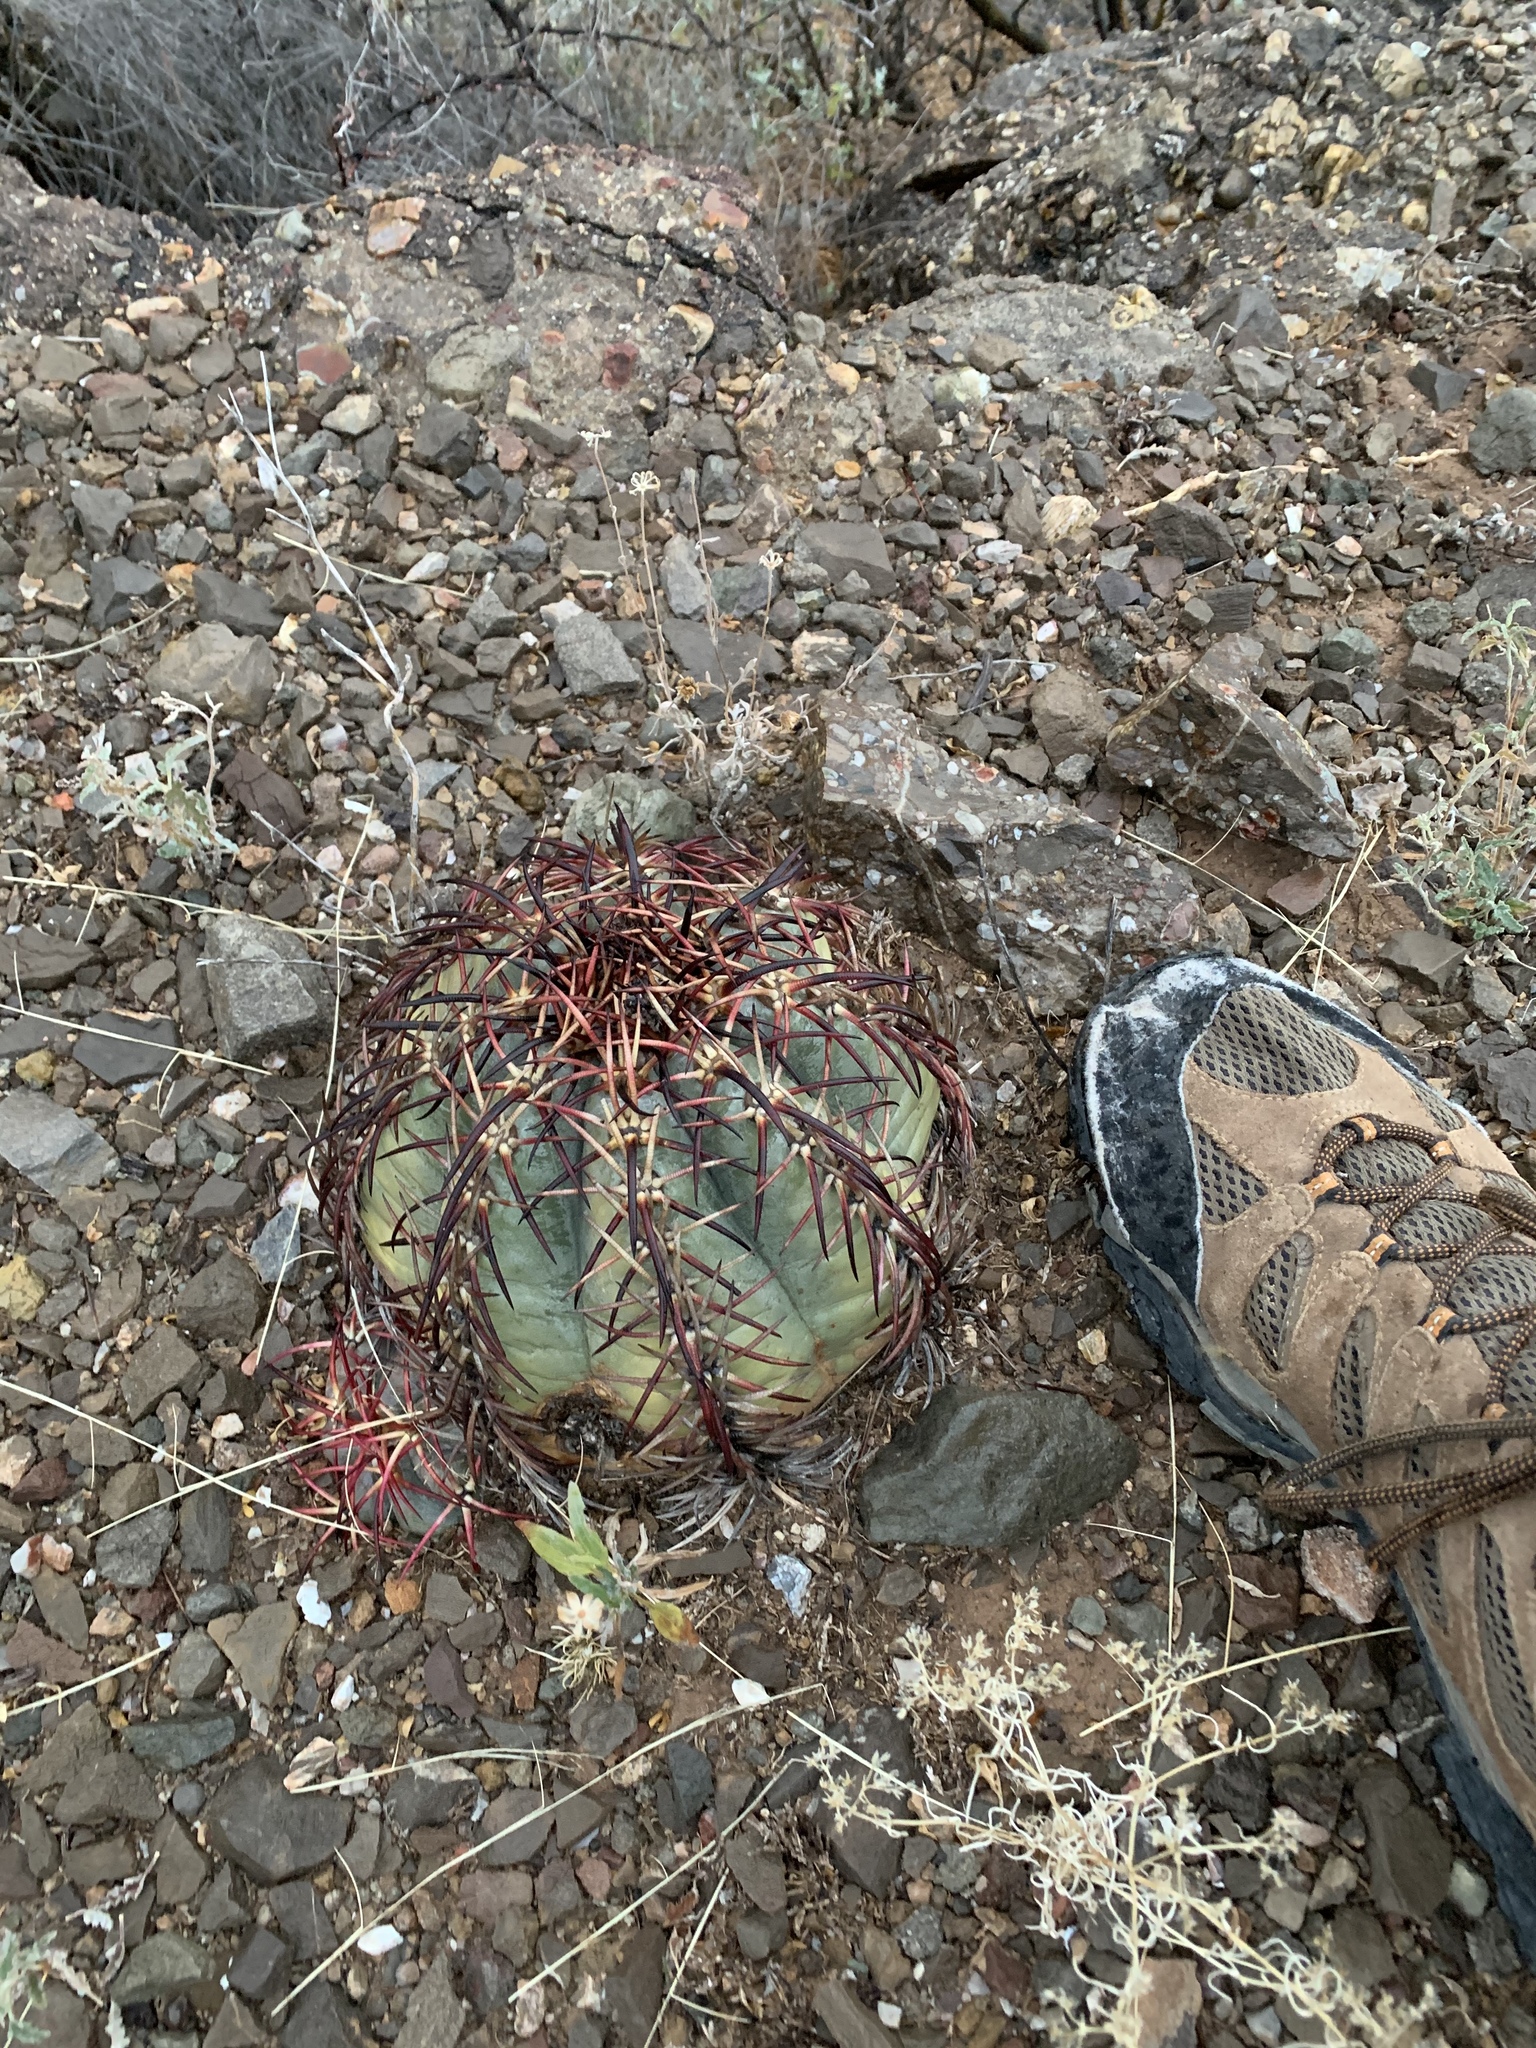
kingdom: Plantae
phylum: Tracheophyta
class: Magnoliopsida
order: Caryophyllales
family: Cactaceae
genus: Echinocactus
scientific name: Echinocactus horizonthalonius
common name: Devilshead
